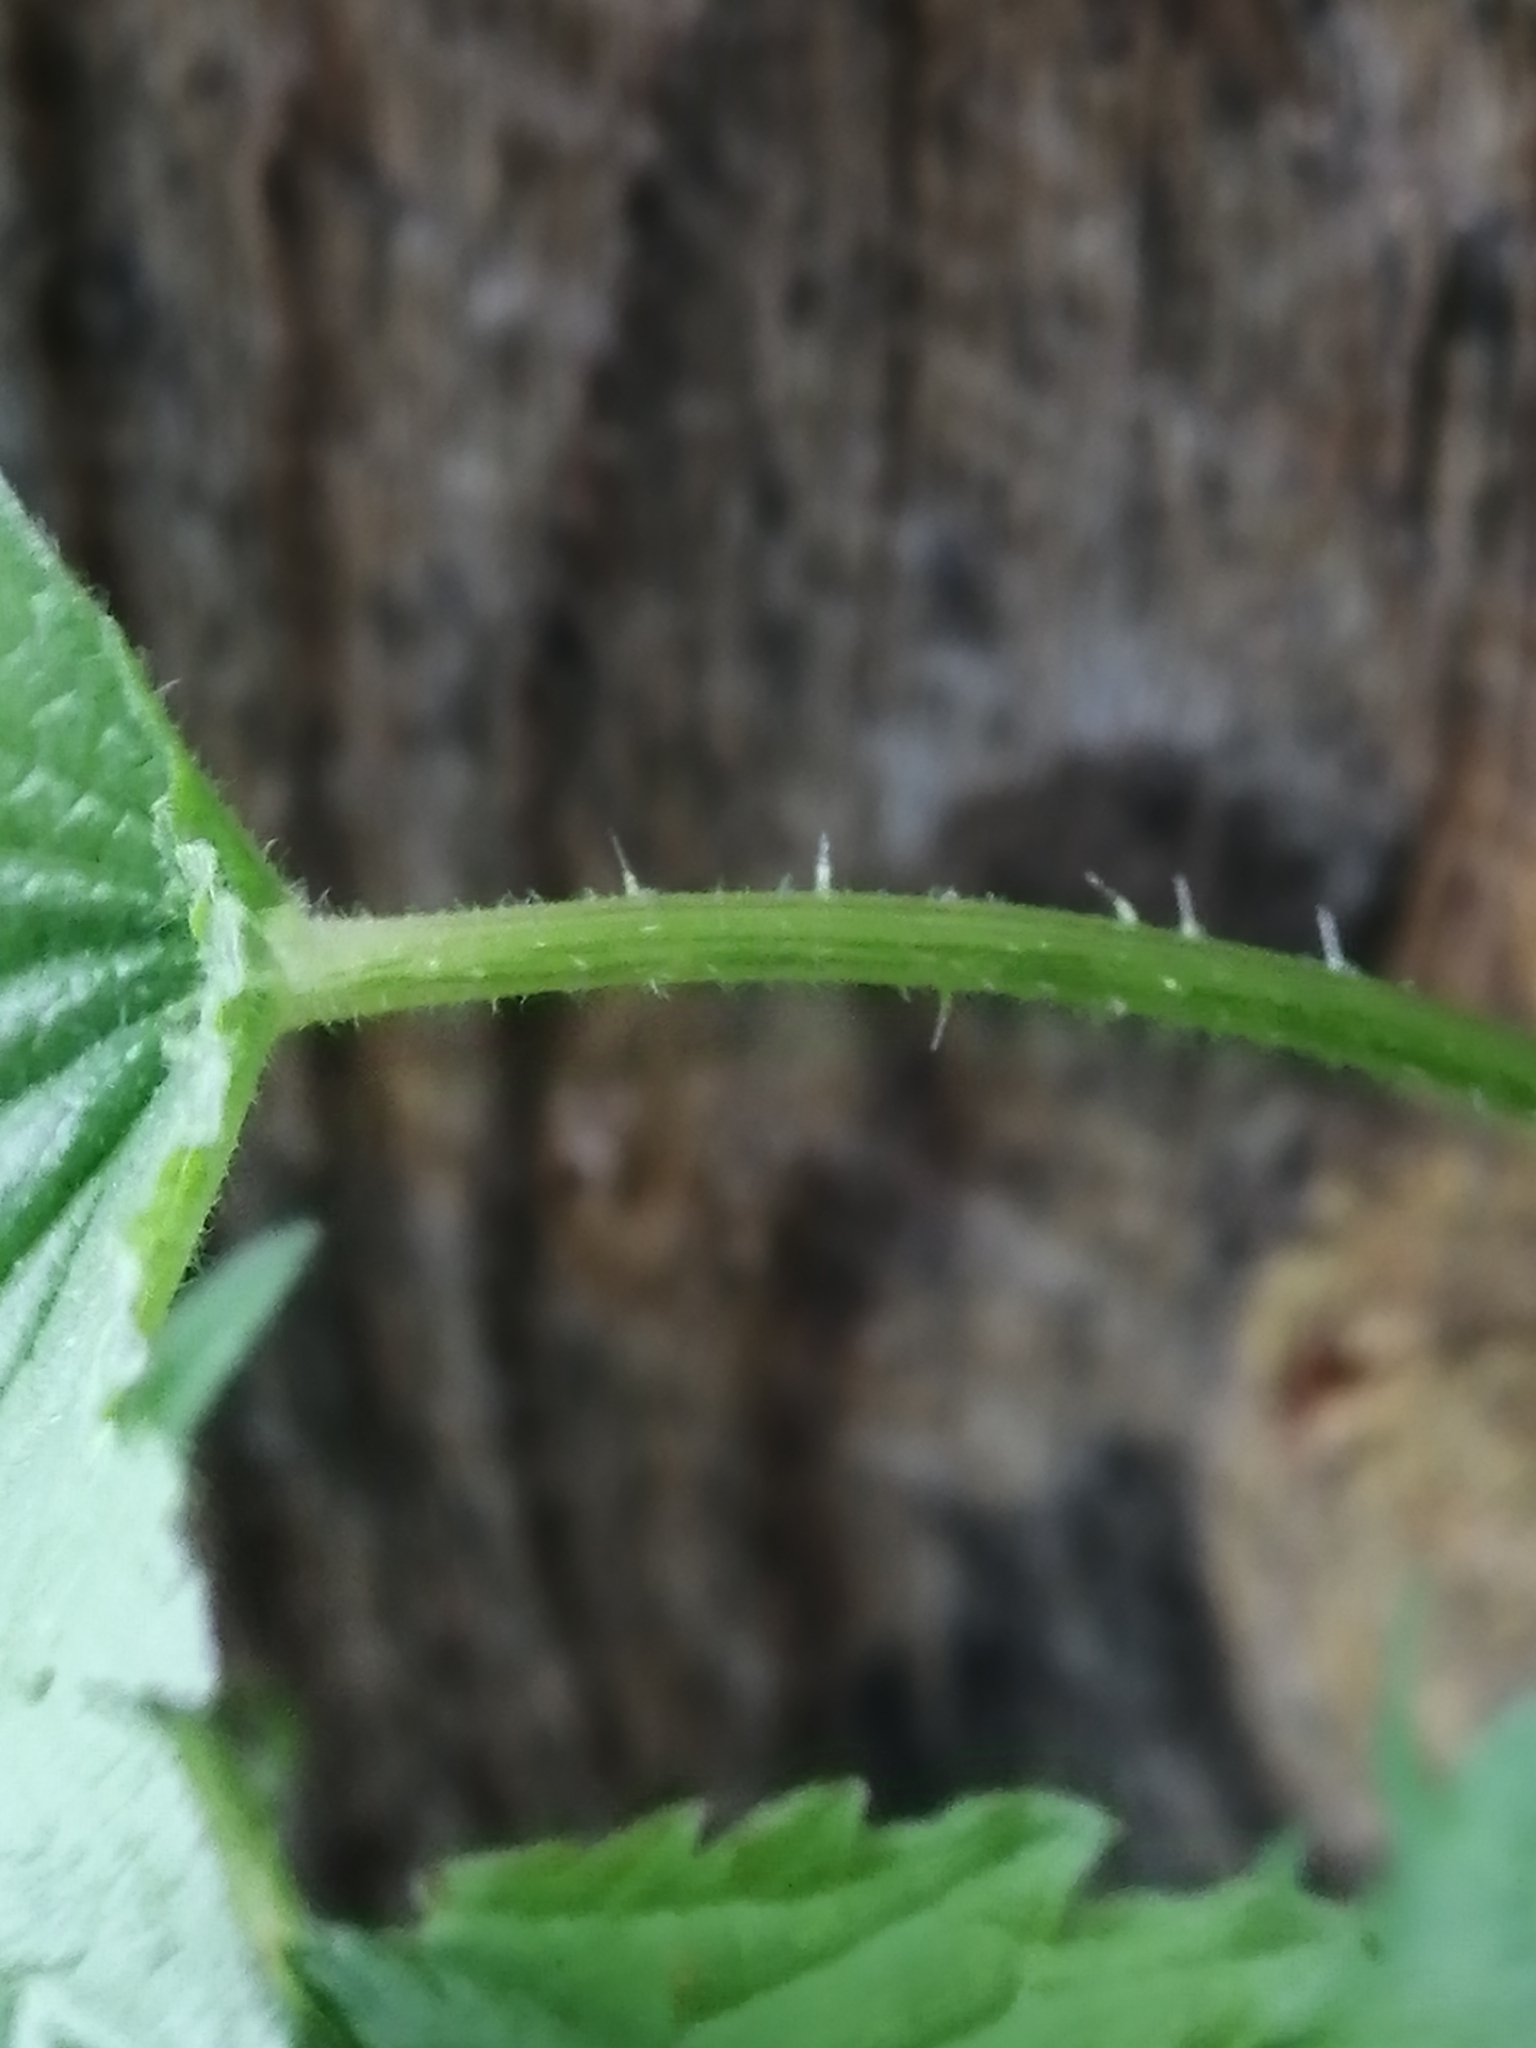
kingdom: Plantae
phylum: Tracheophyta
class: Magnoliopsida
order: Rosales
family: Urticaceae
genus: Urtica
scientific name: Urtica dioica
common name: Common nettle
